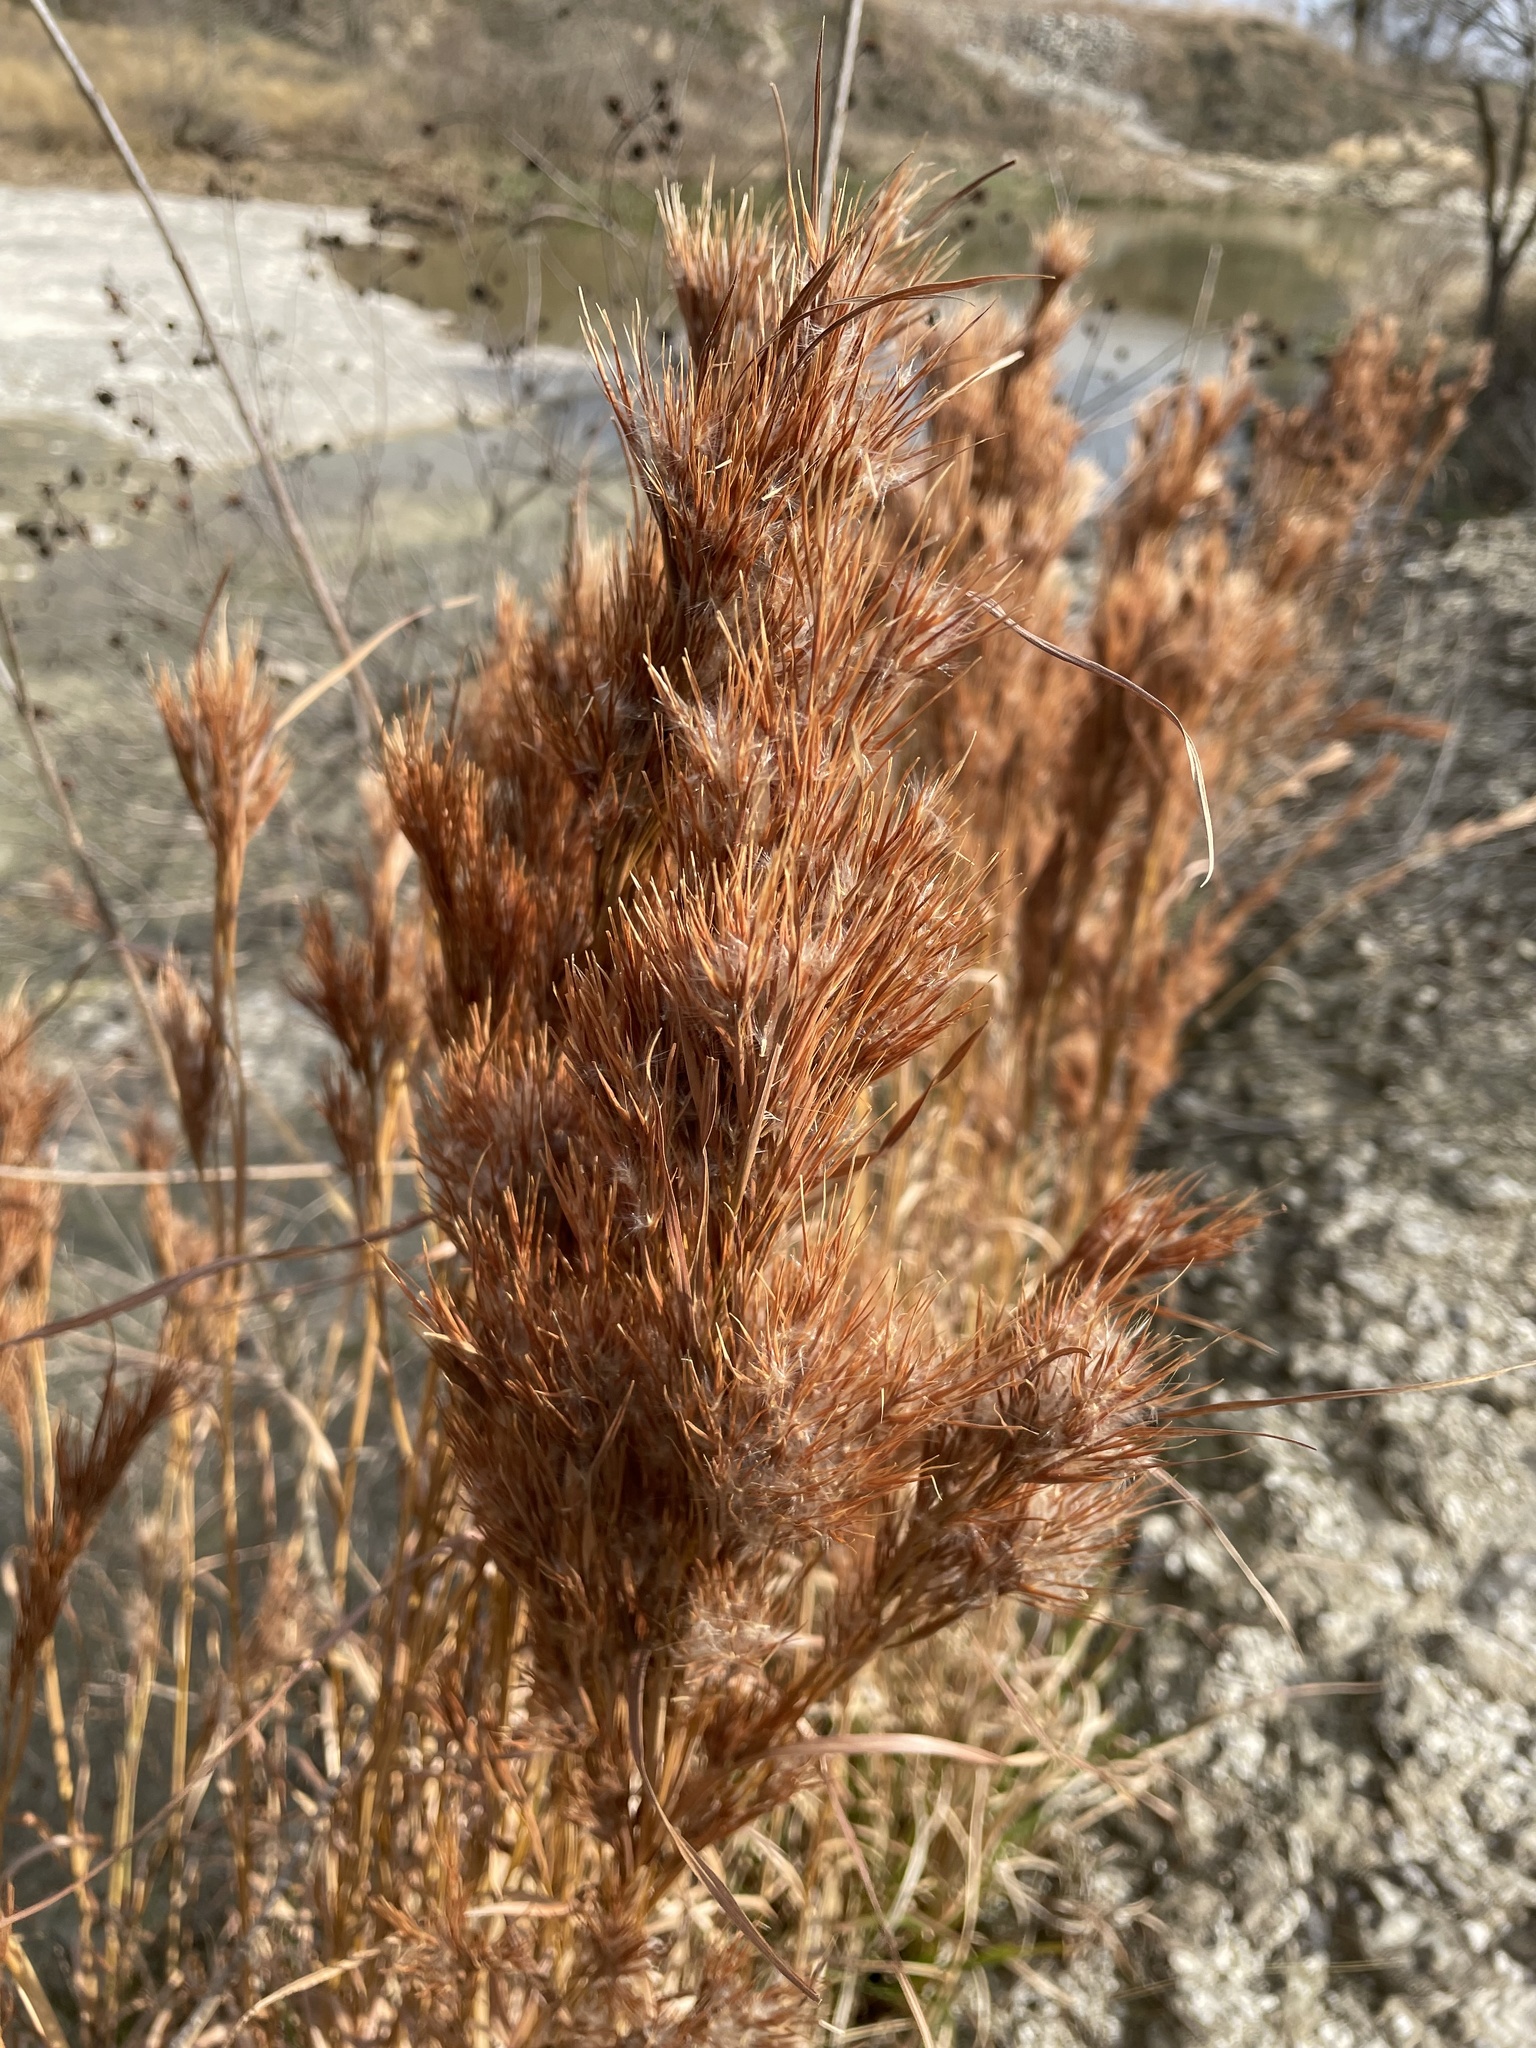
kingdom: Plantae
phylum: Tracheophyta
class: Liliopsida
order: Poales
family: Poaceae
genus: Andropogon
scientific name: Andropogon tenuispatheus
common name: Bushy bluestem
